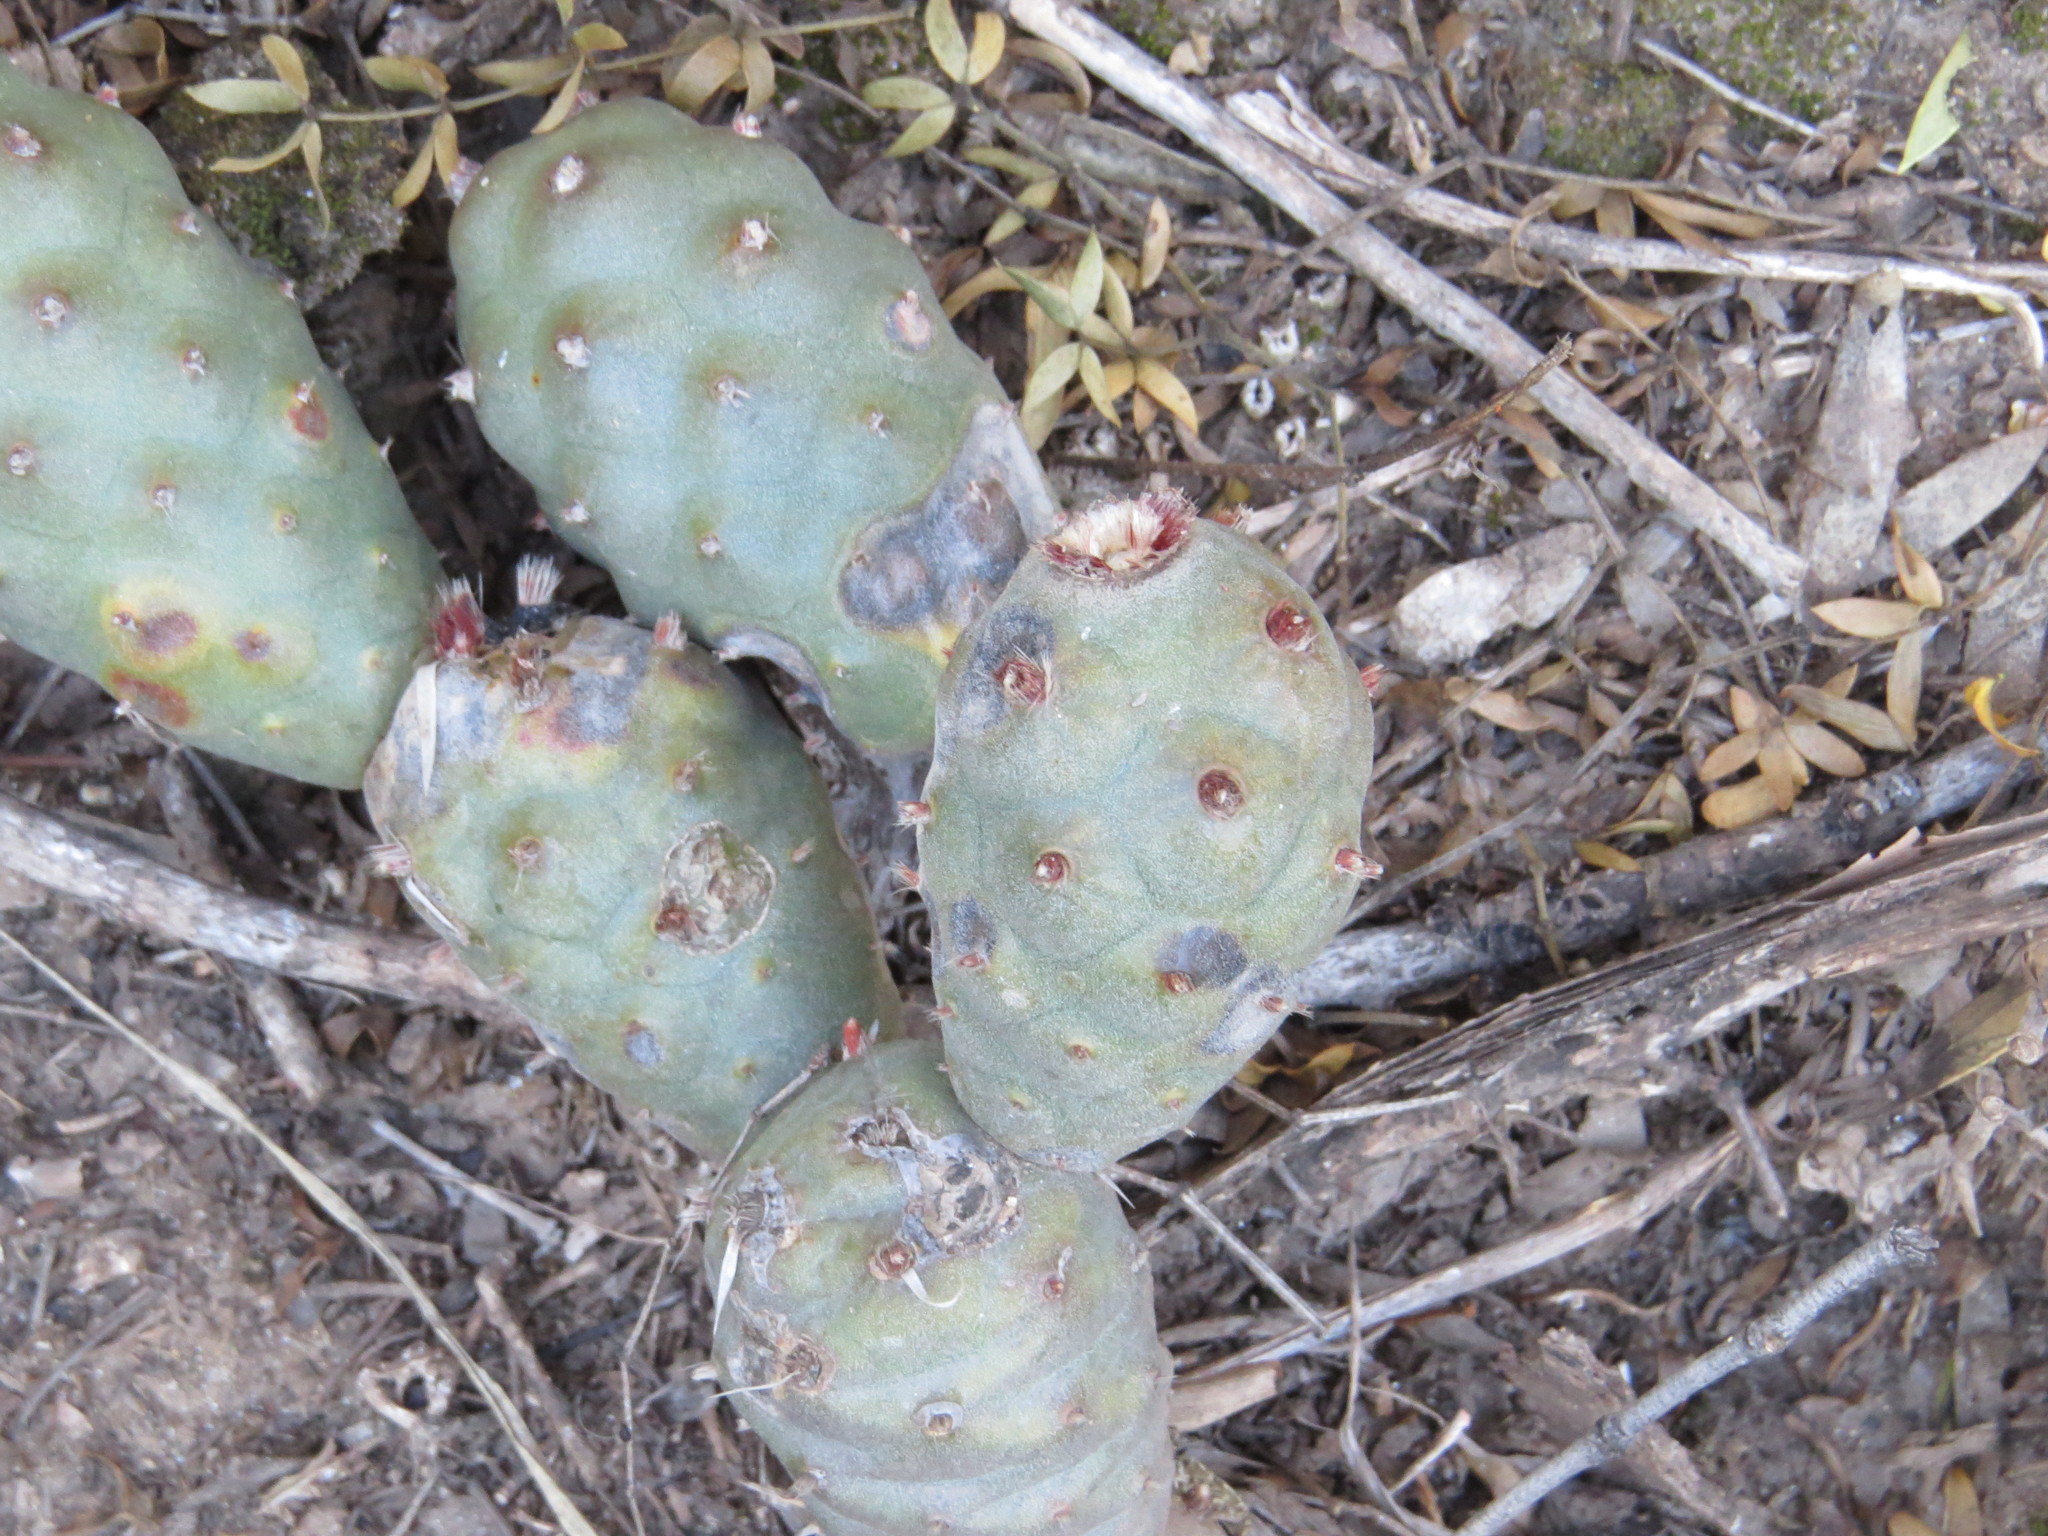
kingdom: Plantae
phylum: Tracheophyta
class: Magnoliopsida
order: Caryophyllales
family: Cactaceae
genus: Tephrocactus
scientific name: Tephrocactus articulatus
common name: Paper cactus
